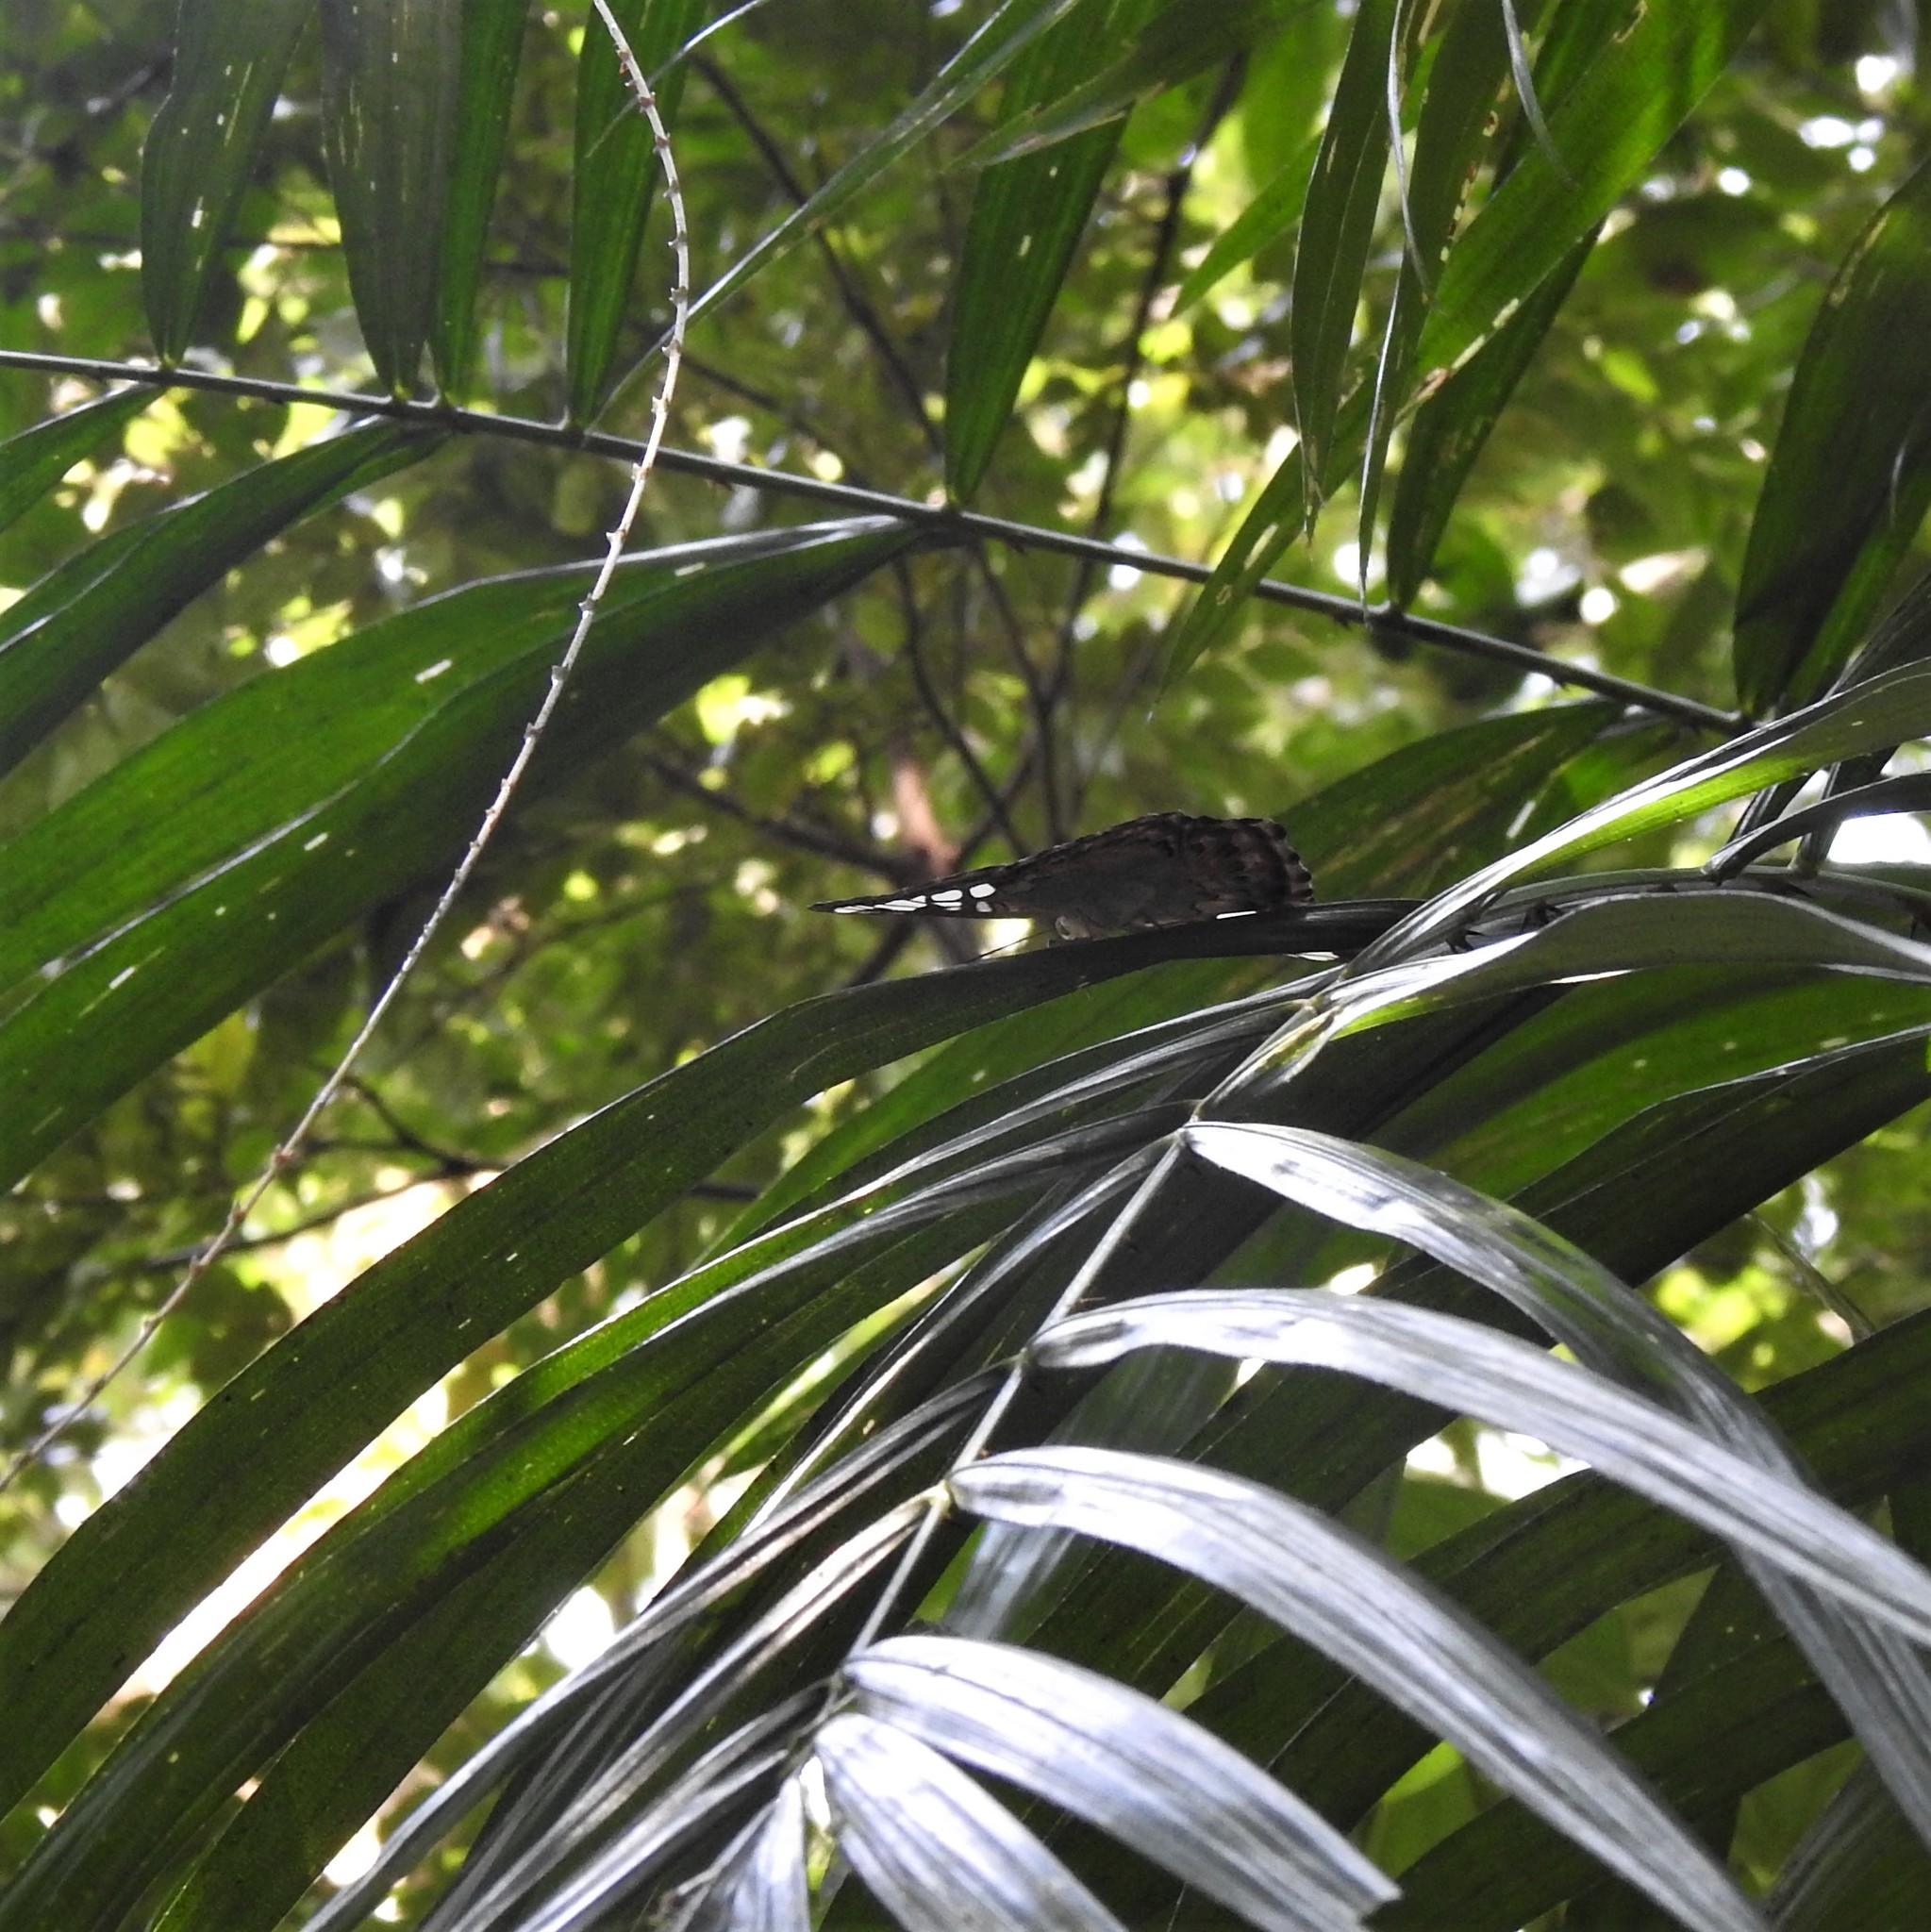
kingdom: Animalia
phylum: Arthropoda
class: Insecta
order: Lepidoptera
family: Nymphalidae
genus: Kallima
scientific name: Kallima sylvia
